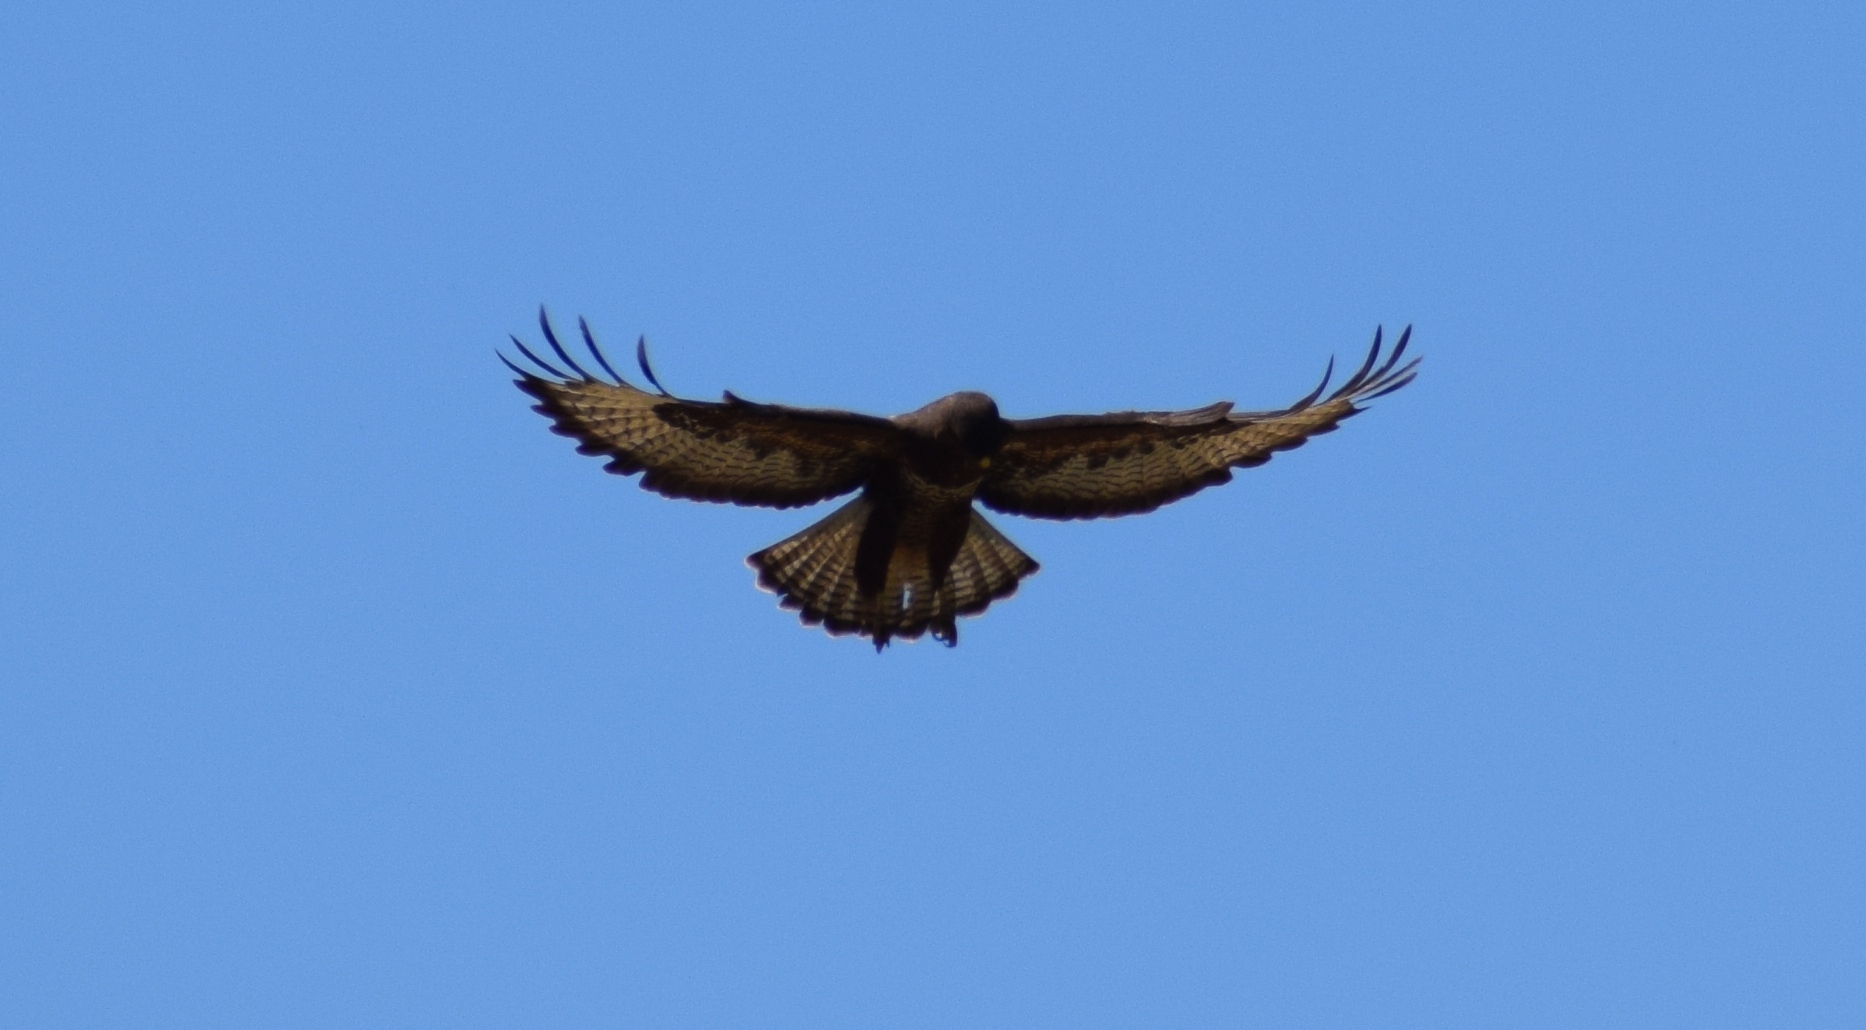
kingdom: Animalia
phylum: Chordata
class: Aves
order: Accipitriformes
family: Accipitridae
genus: Buteo
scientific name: Buteo buteo
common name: Common buzzard
